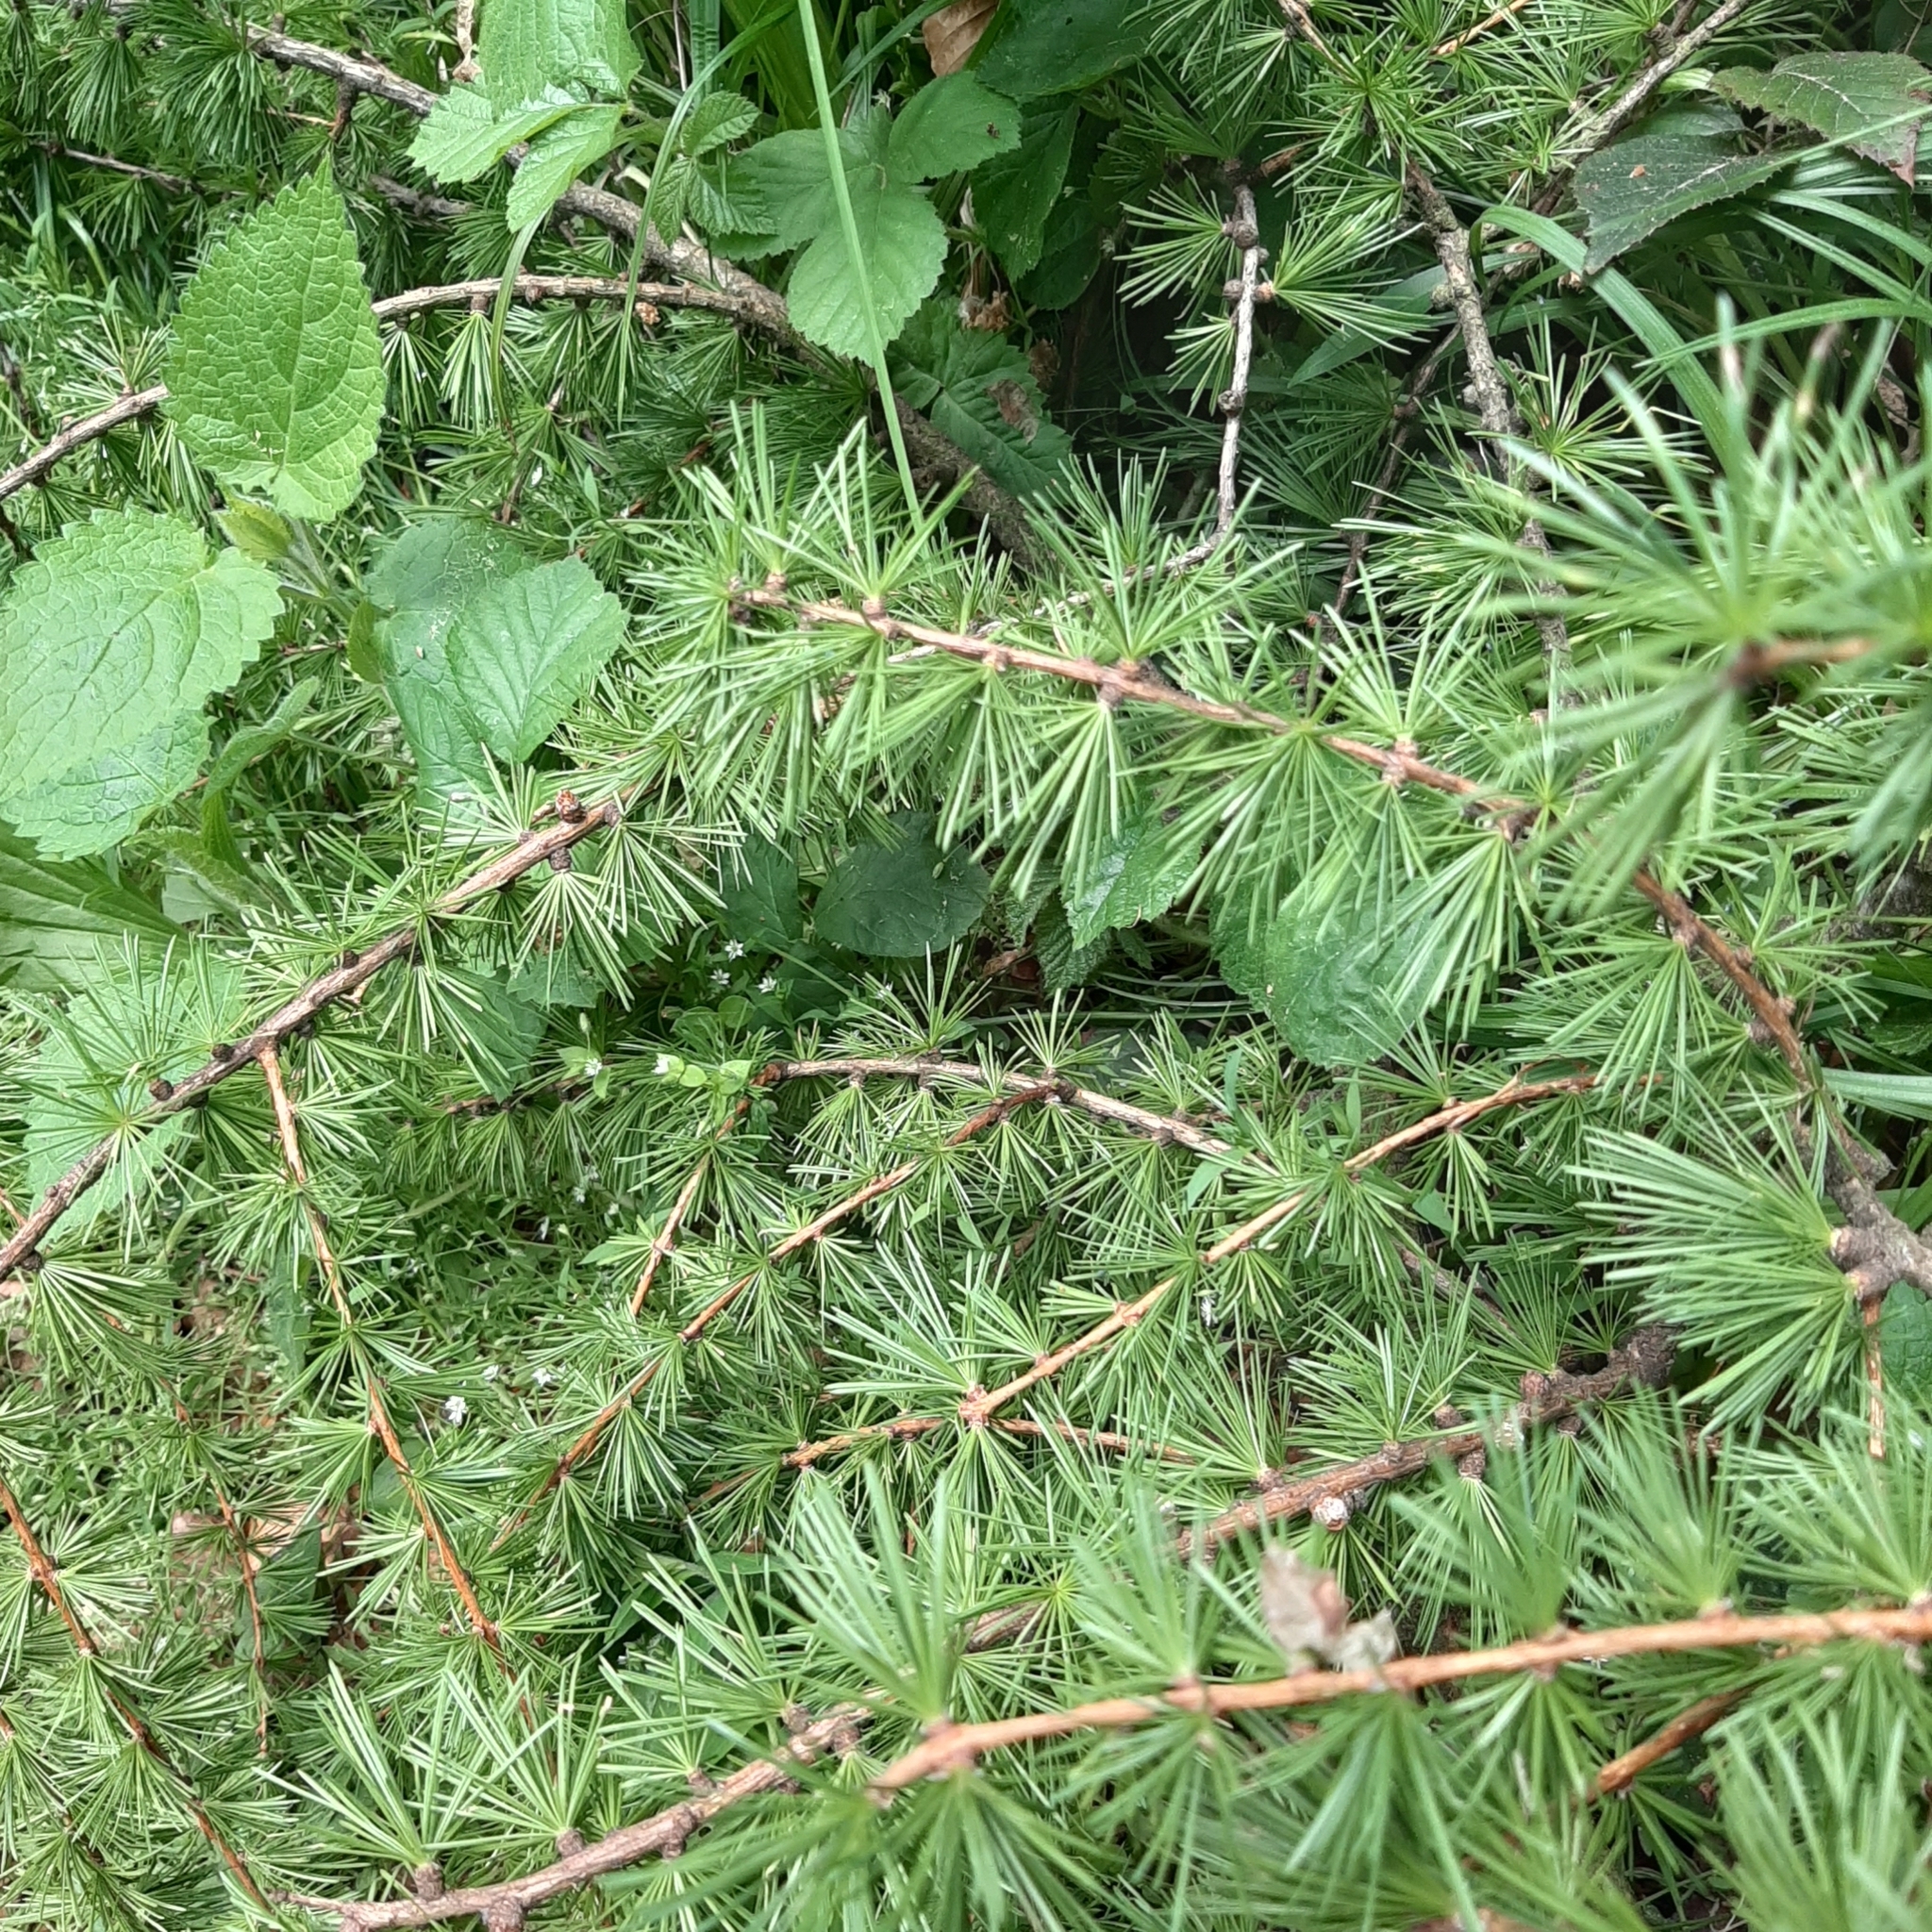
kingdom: Plantae
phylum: Tracheophyta
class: Pinopsida
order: Pinales
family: Pinaceae
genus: Larix
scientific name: Larix decidua
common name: European larch
